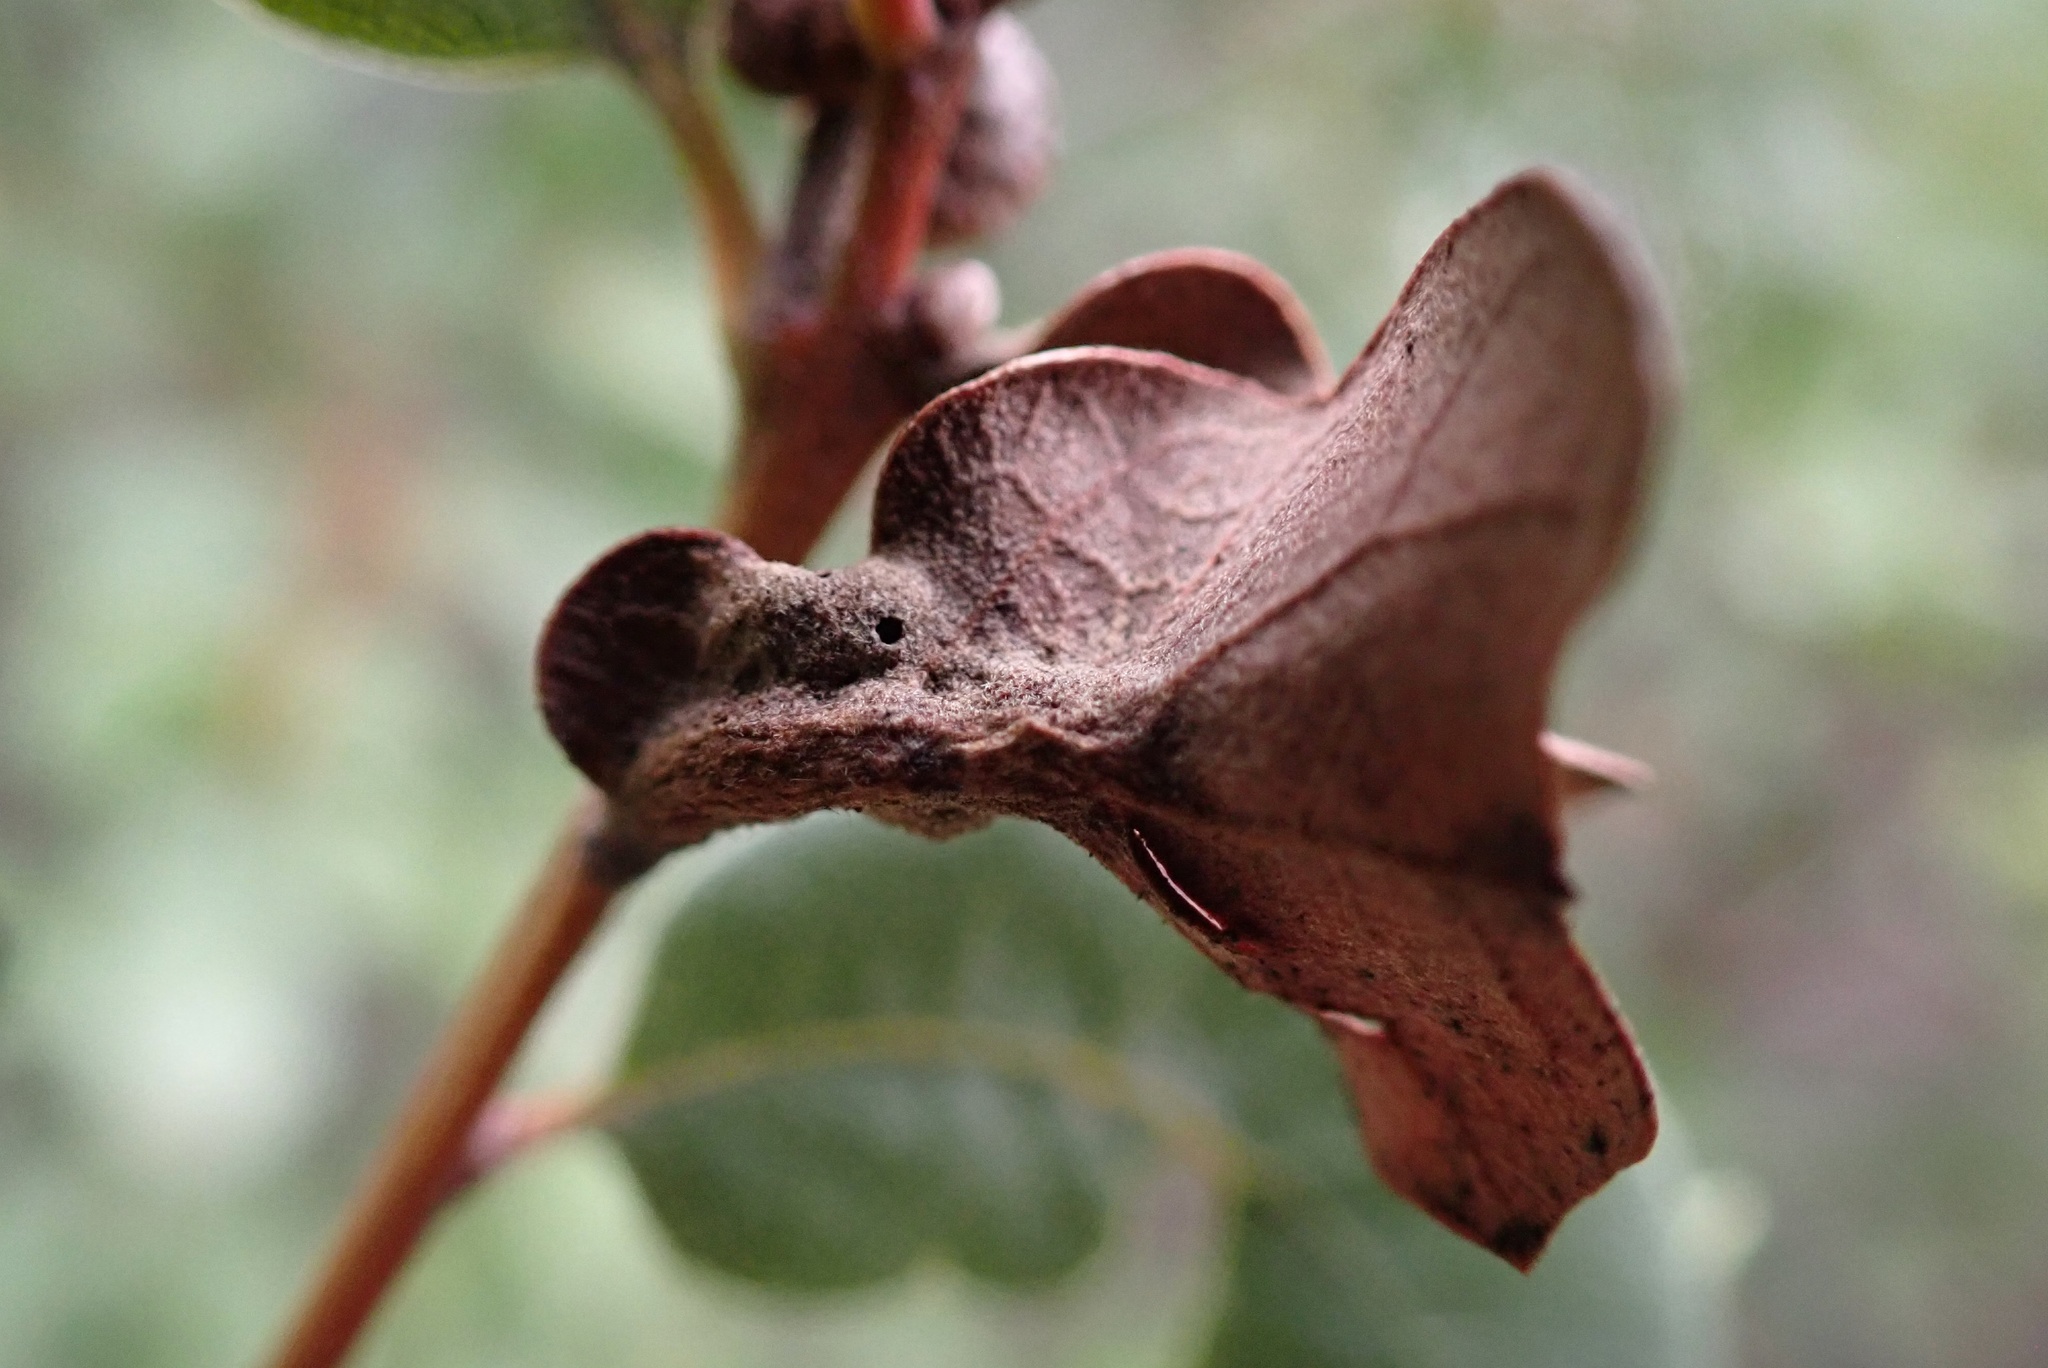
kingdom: Animalia
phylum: Arthropoda
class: Insecta
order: Hymenoptera
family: Cynipidae
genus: Neuroterus
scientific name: Neuroterus
